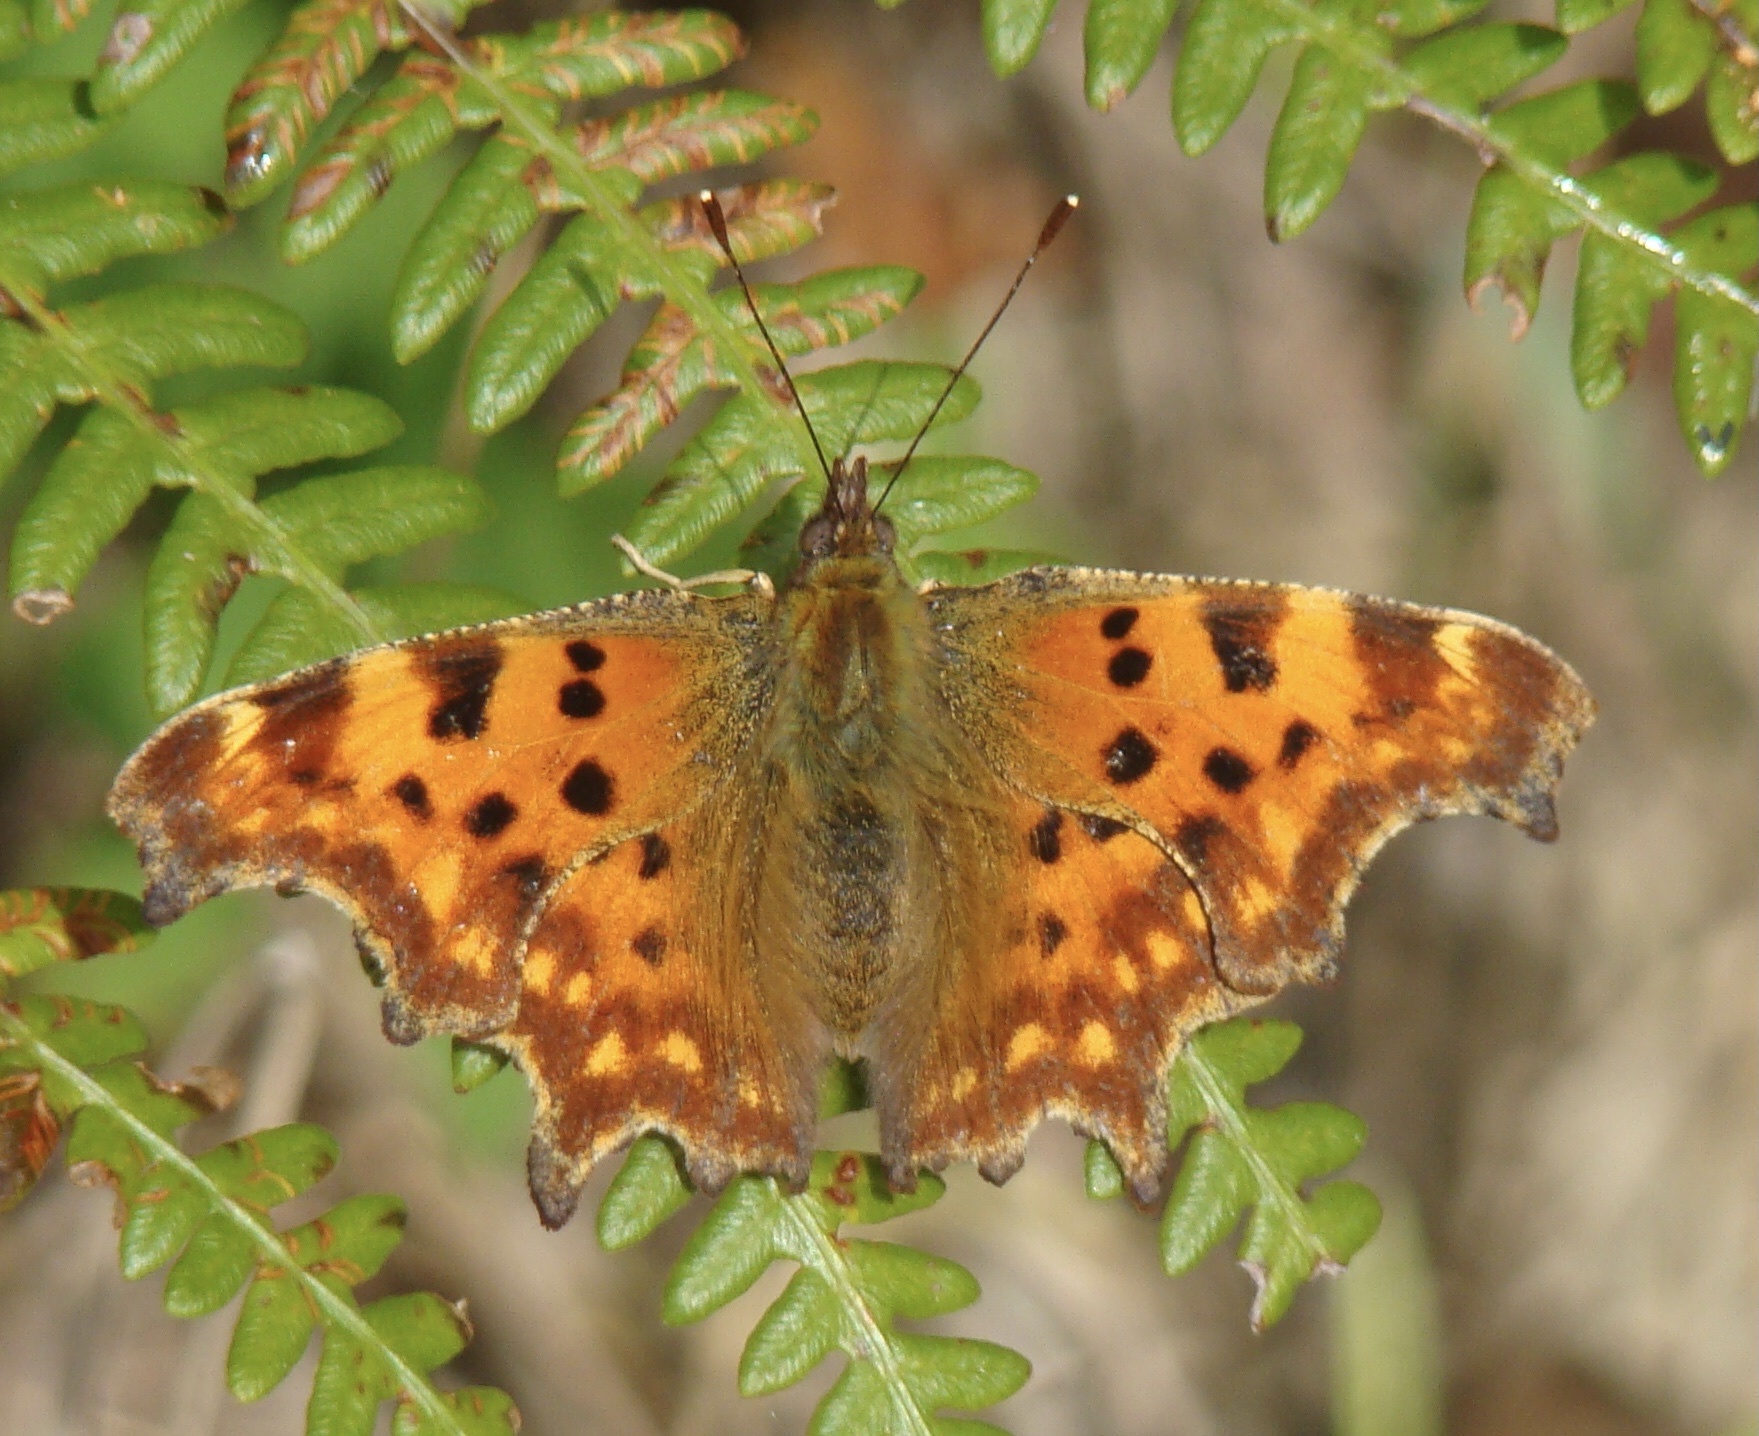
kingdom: Animalia
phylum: Arthropoda
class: Insecta
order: Lepidoptera
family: Nymphalidae
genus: Polygonia
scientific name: Polygonia c-album
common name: Comma
